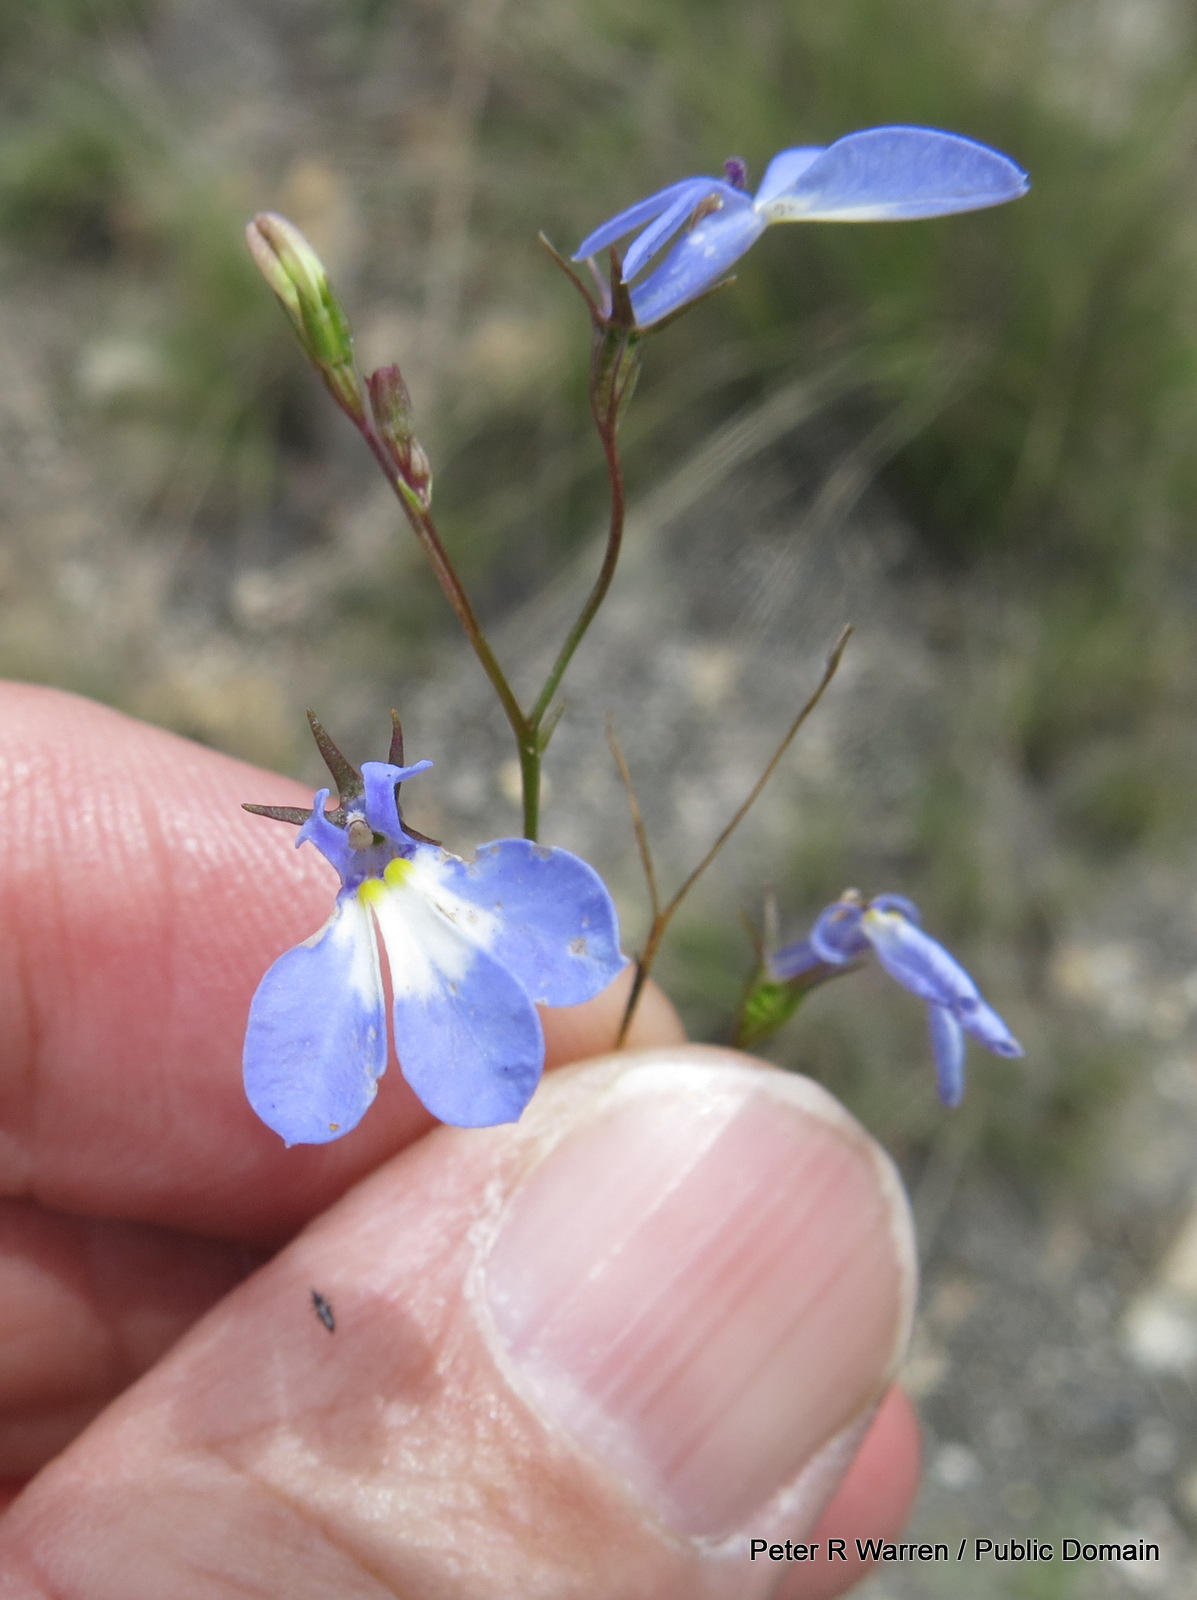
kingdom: Plantae
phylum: Tracheophyta
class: Magnoliopsida
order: Asterales
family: Campanulaceae
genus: Lobelia
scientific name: Lobelia erinus
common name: Edging lobelia
